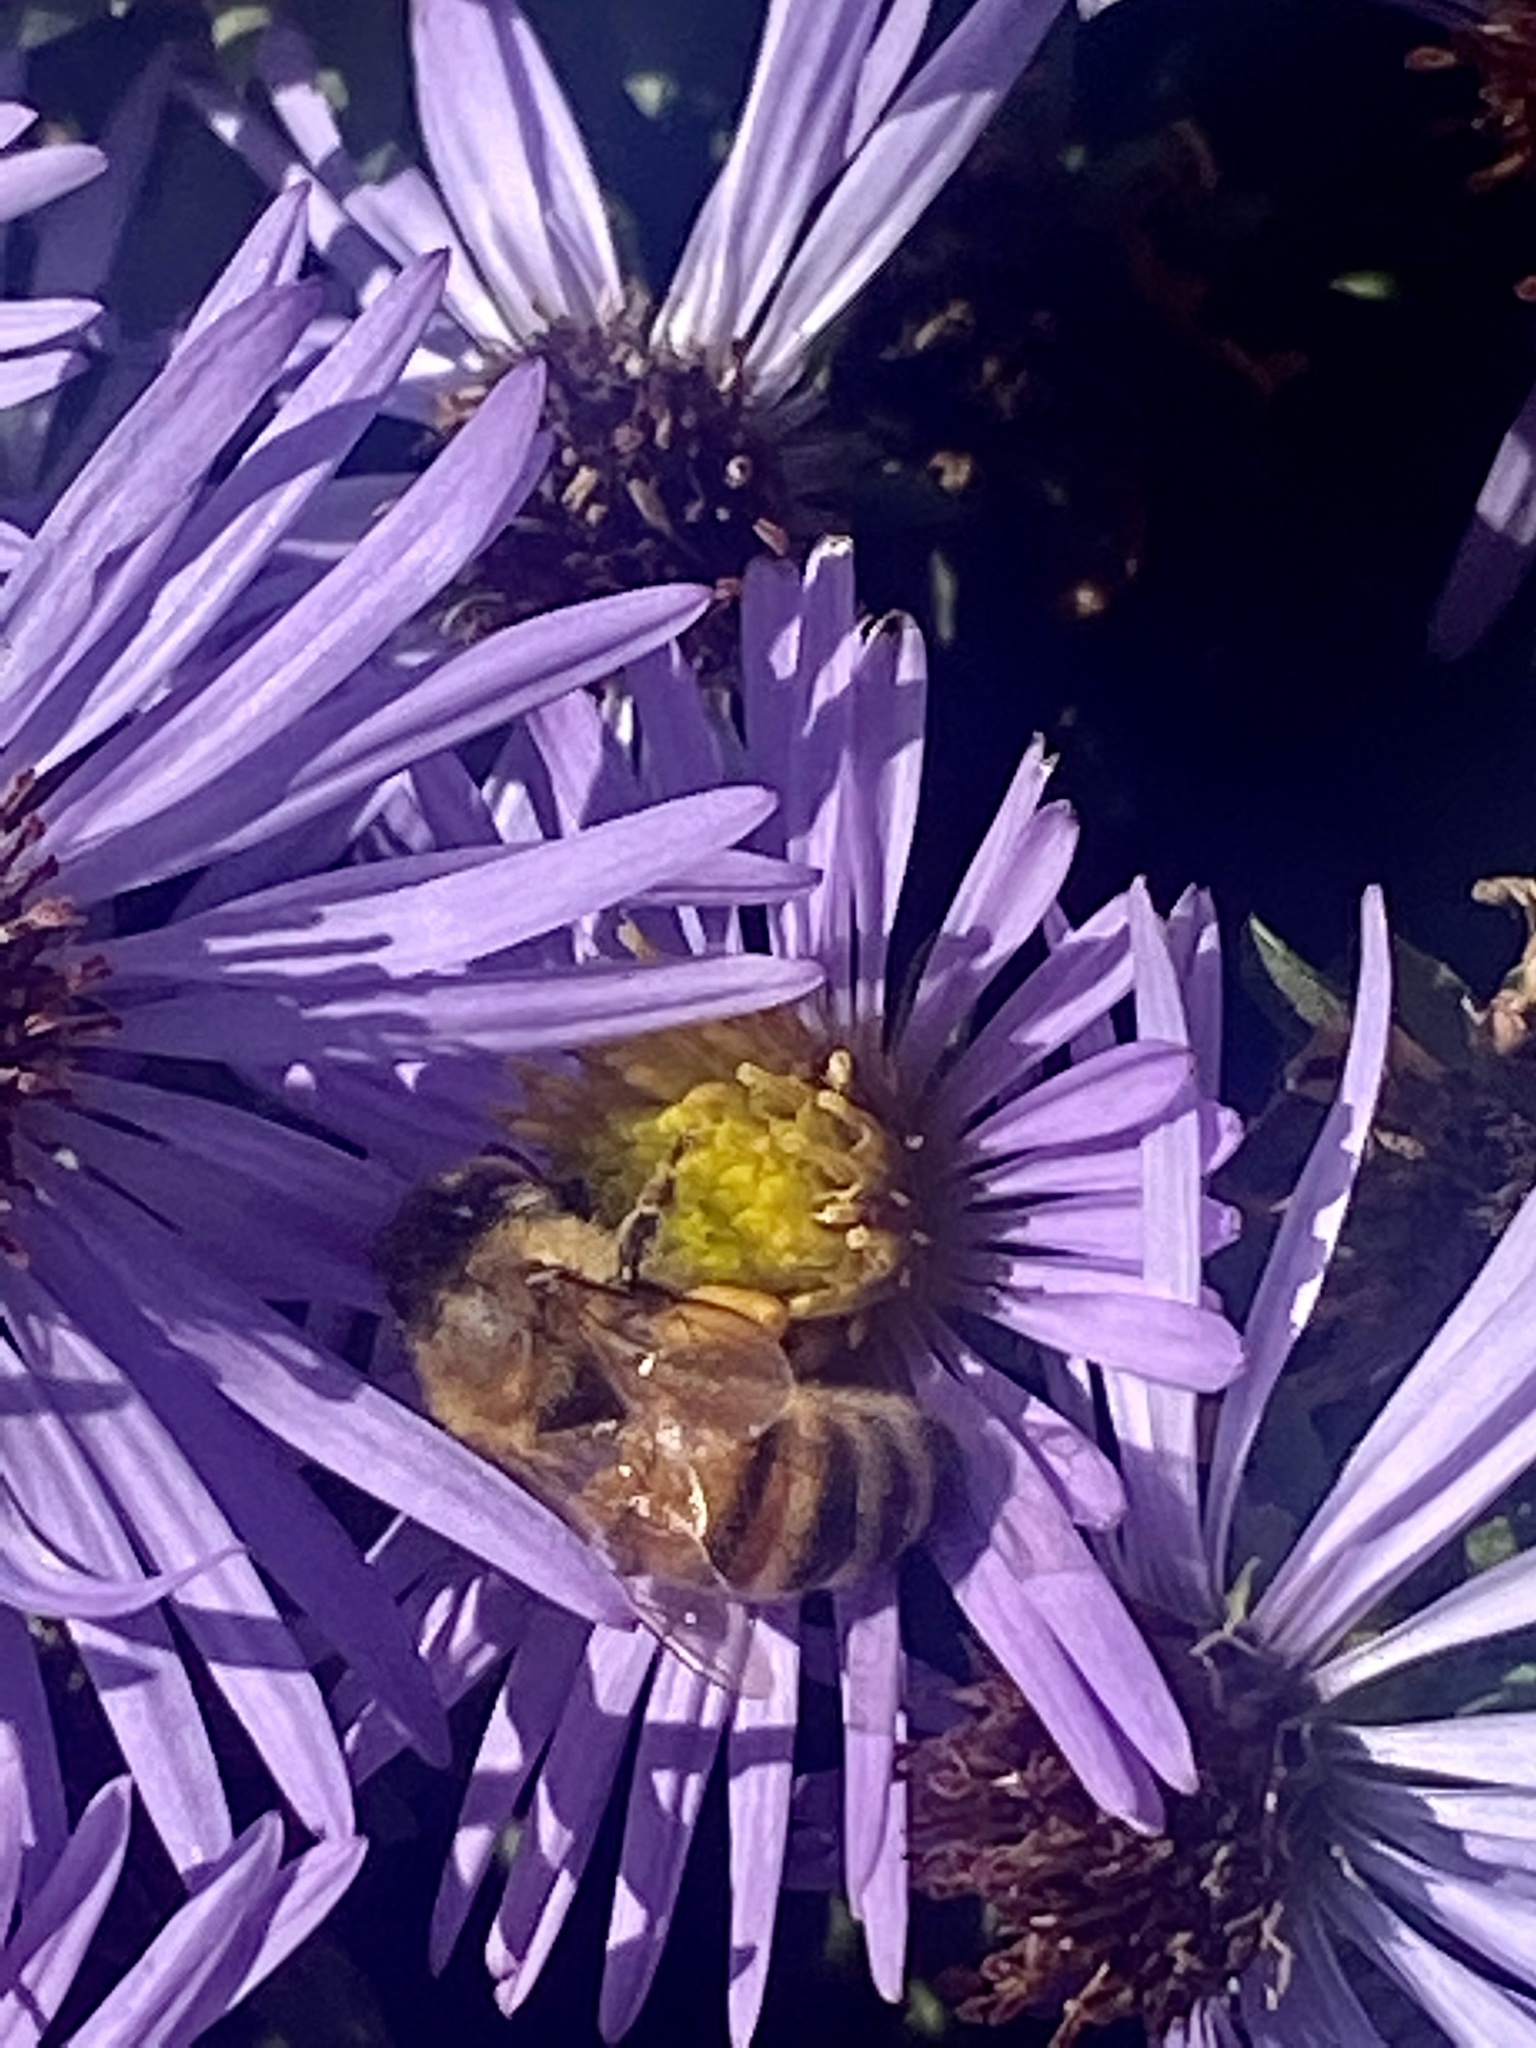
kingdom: Animalia
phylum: Arthropoda
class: Insecta
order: Hymenoptera
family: Apidae
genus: Apis
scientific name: Apis mellifera
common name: Honey bee
